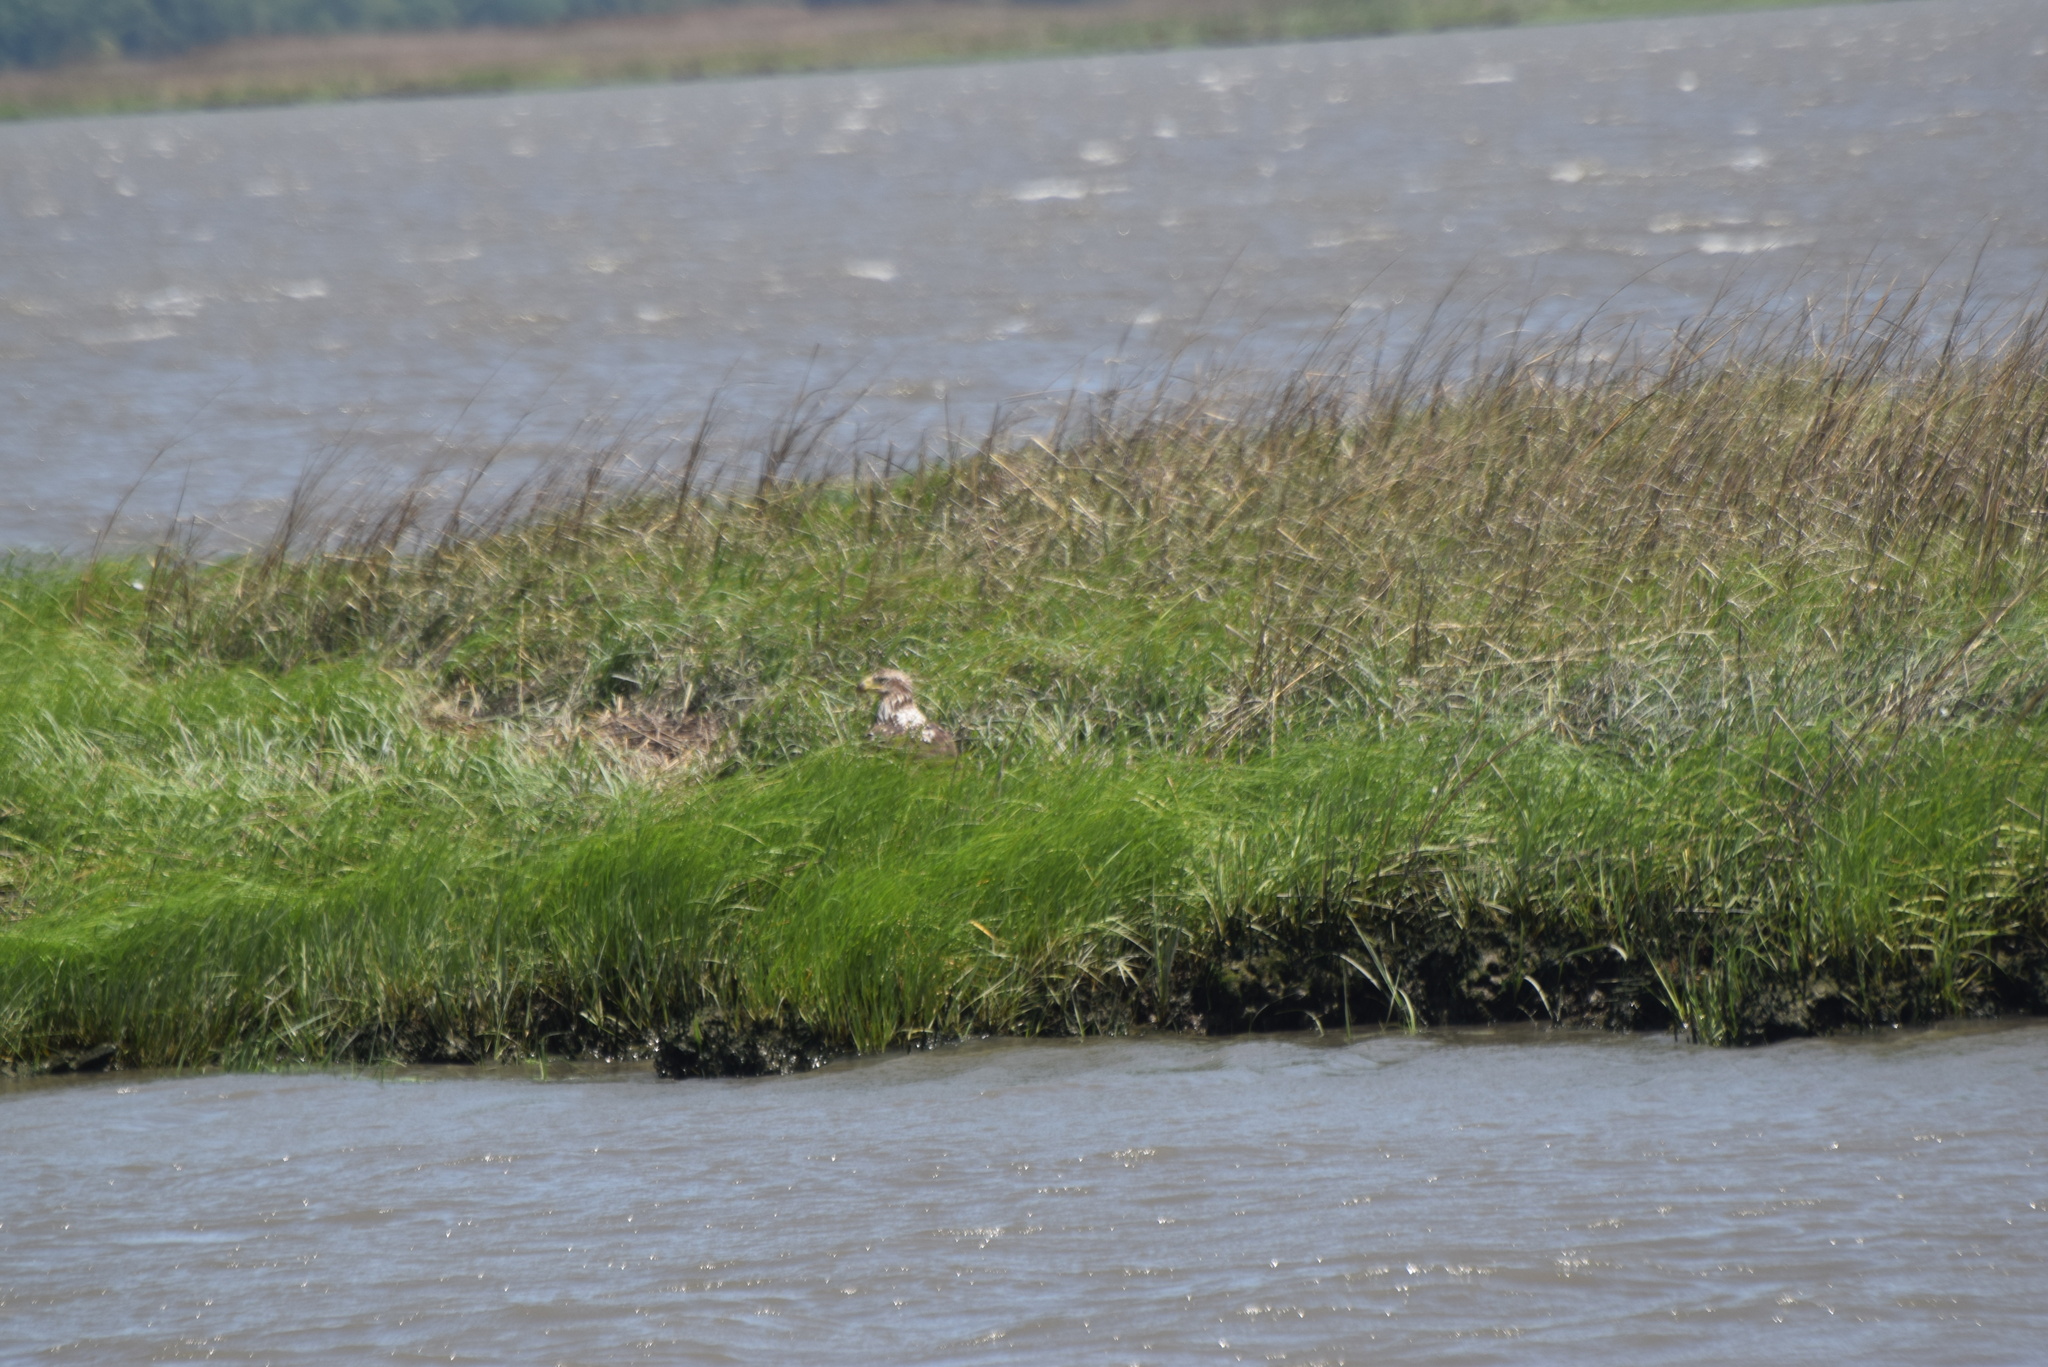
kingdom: Animalia
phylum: Chordata
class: Aves
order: Accipitriformes
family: Accipitridae
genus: Haliaeetus
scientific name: Haliaeetus leucocephalus
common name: Bald eagle
